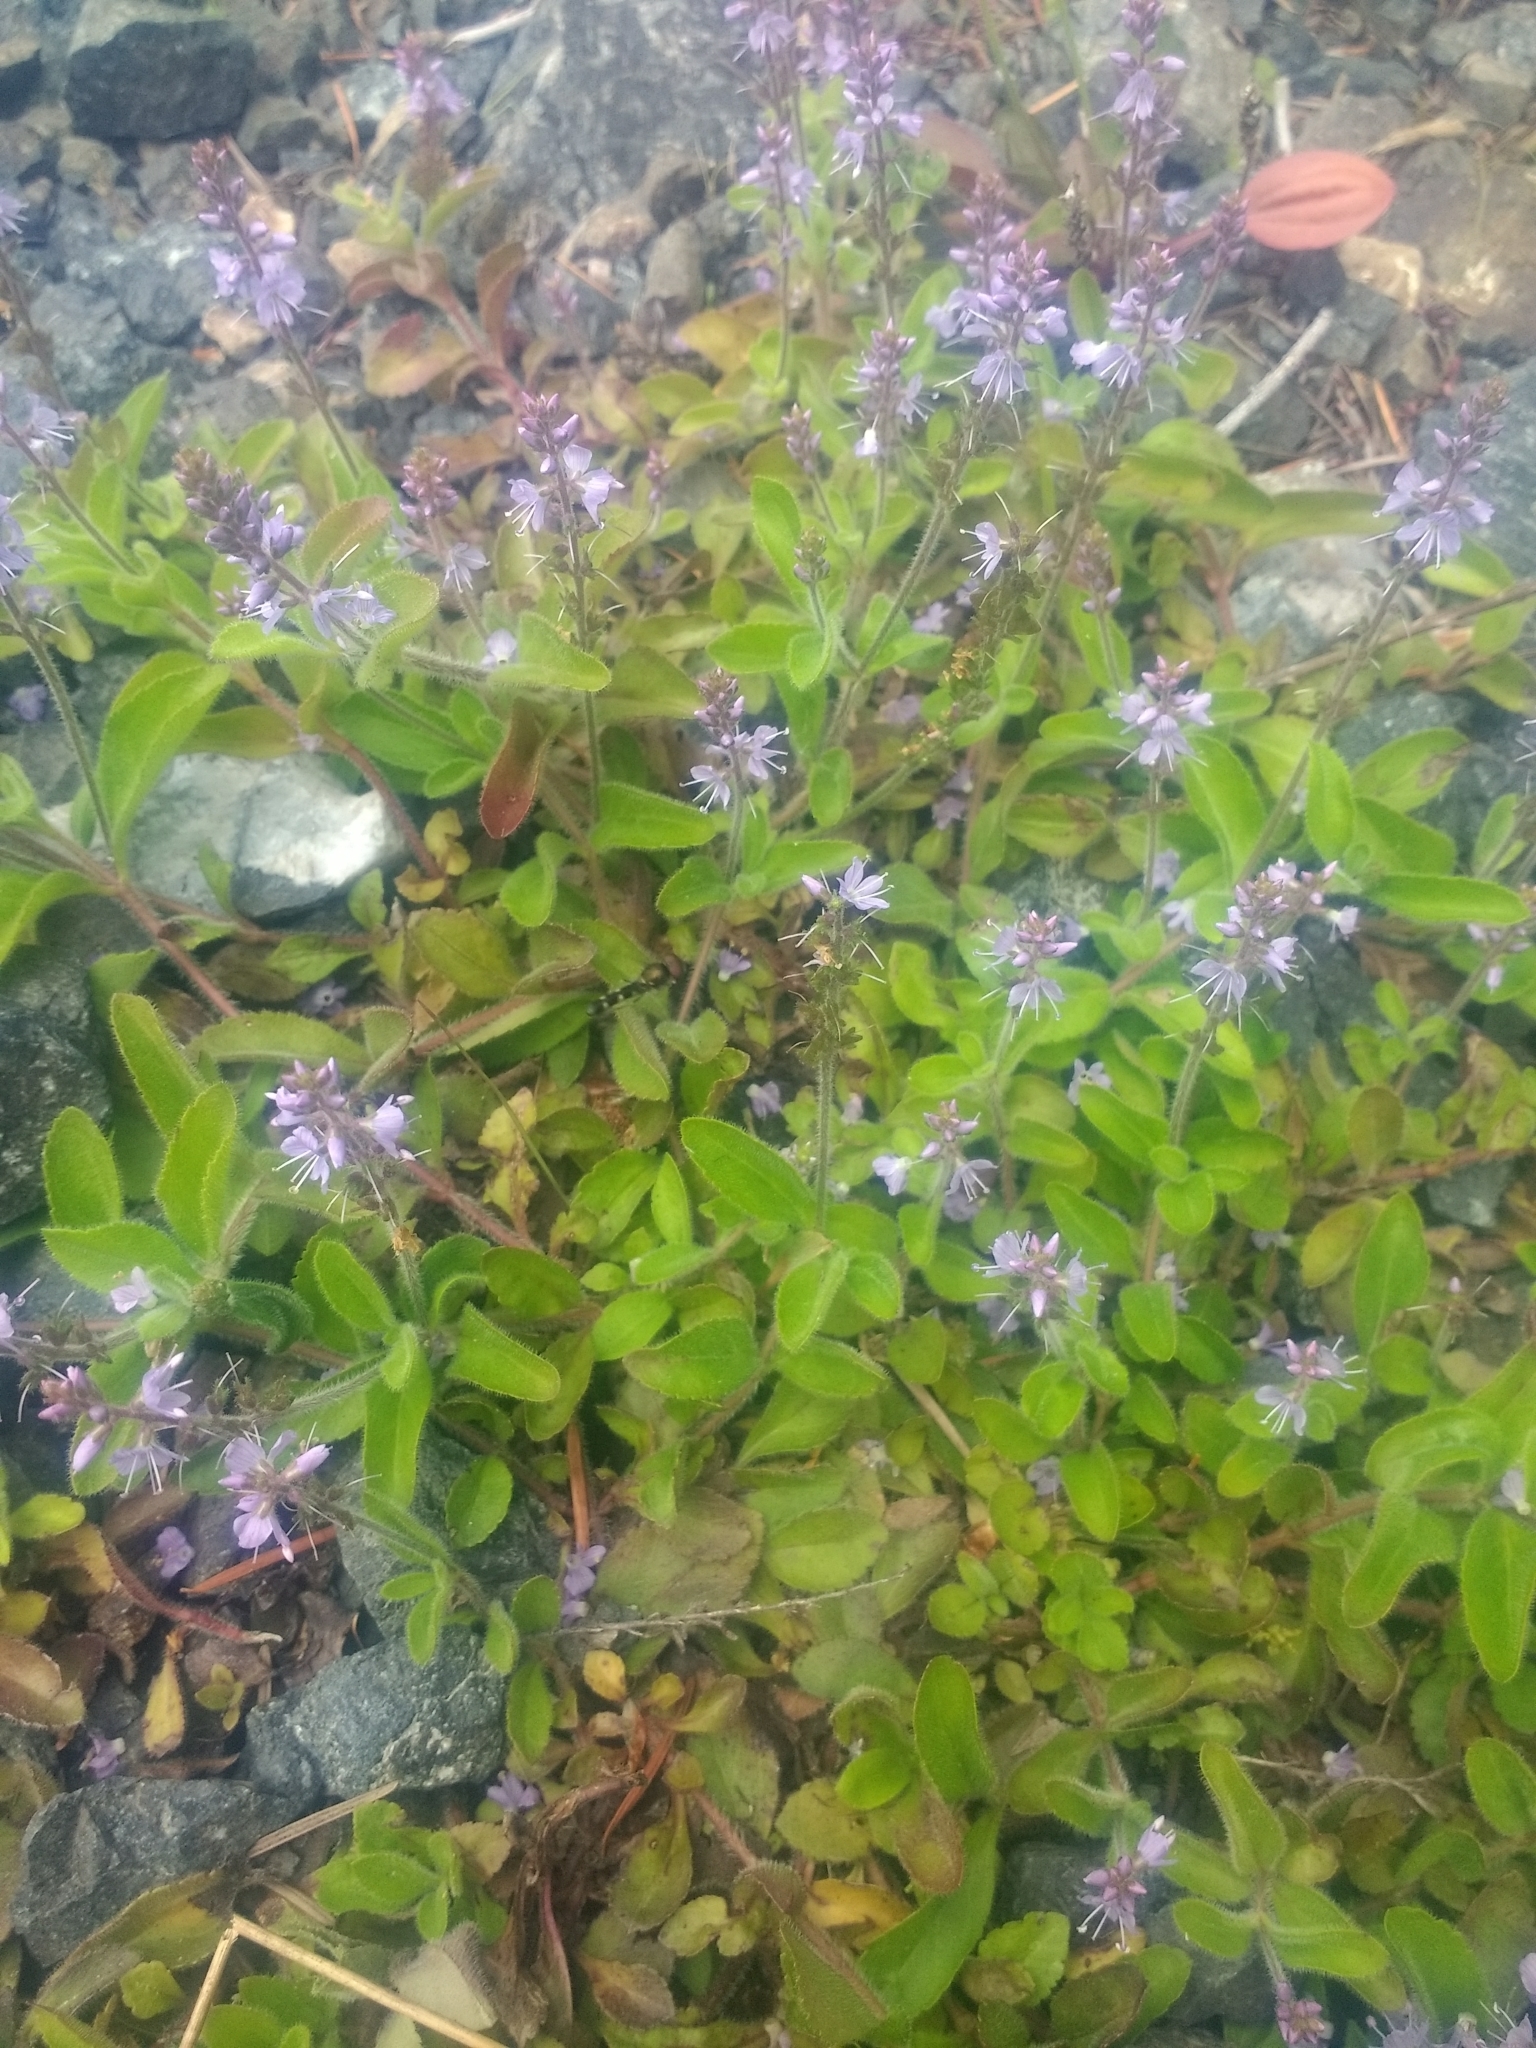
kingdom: Plantae
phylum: Tracheophyta
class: Magnoliopsida
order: Lamiales
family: Plantaginaceae
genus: Veronica
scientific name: Veronica officinalis
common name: Common speedwell
